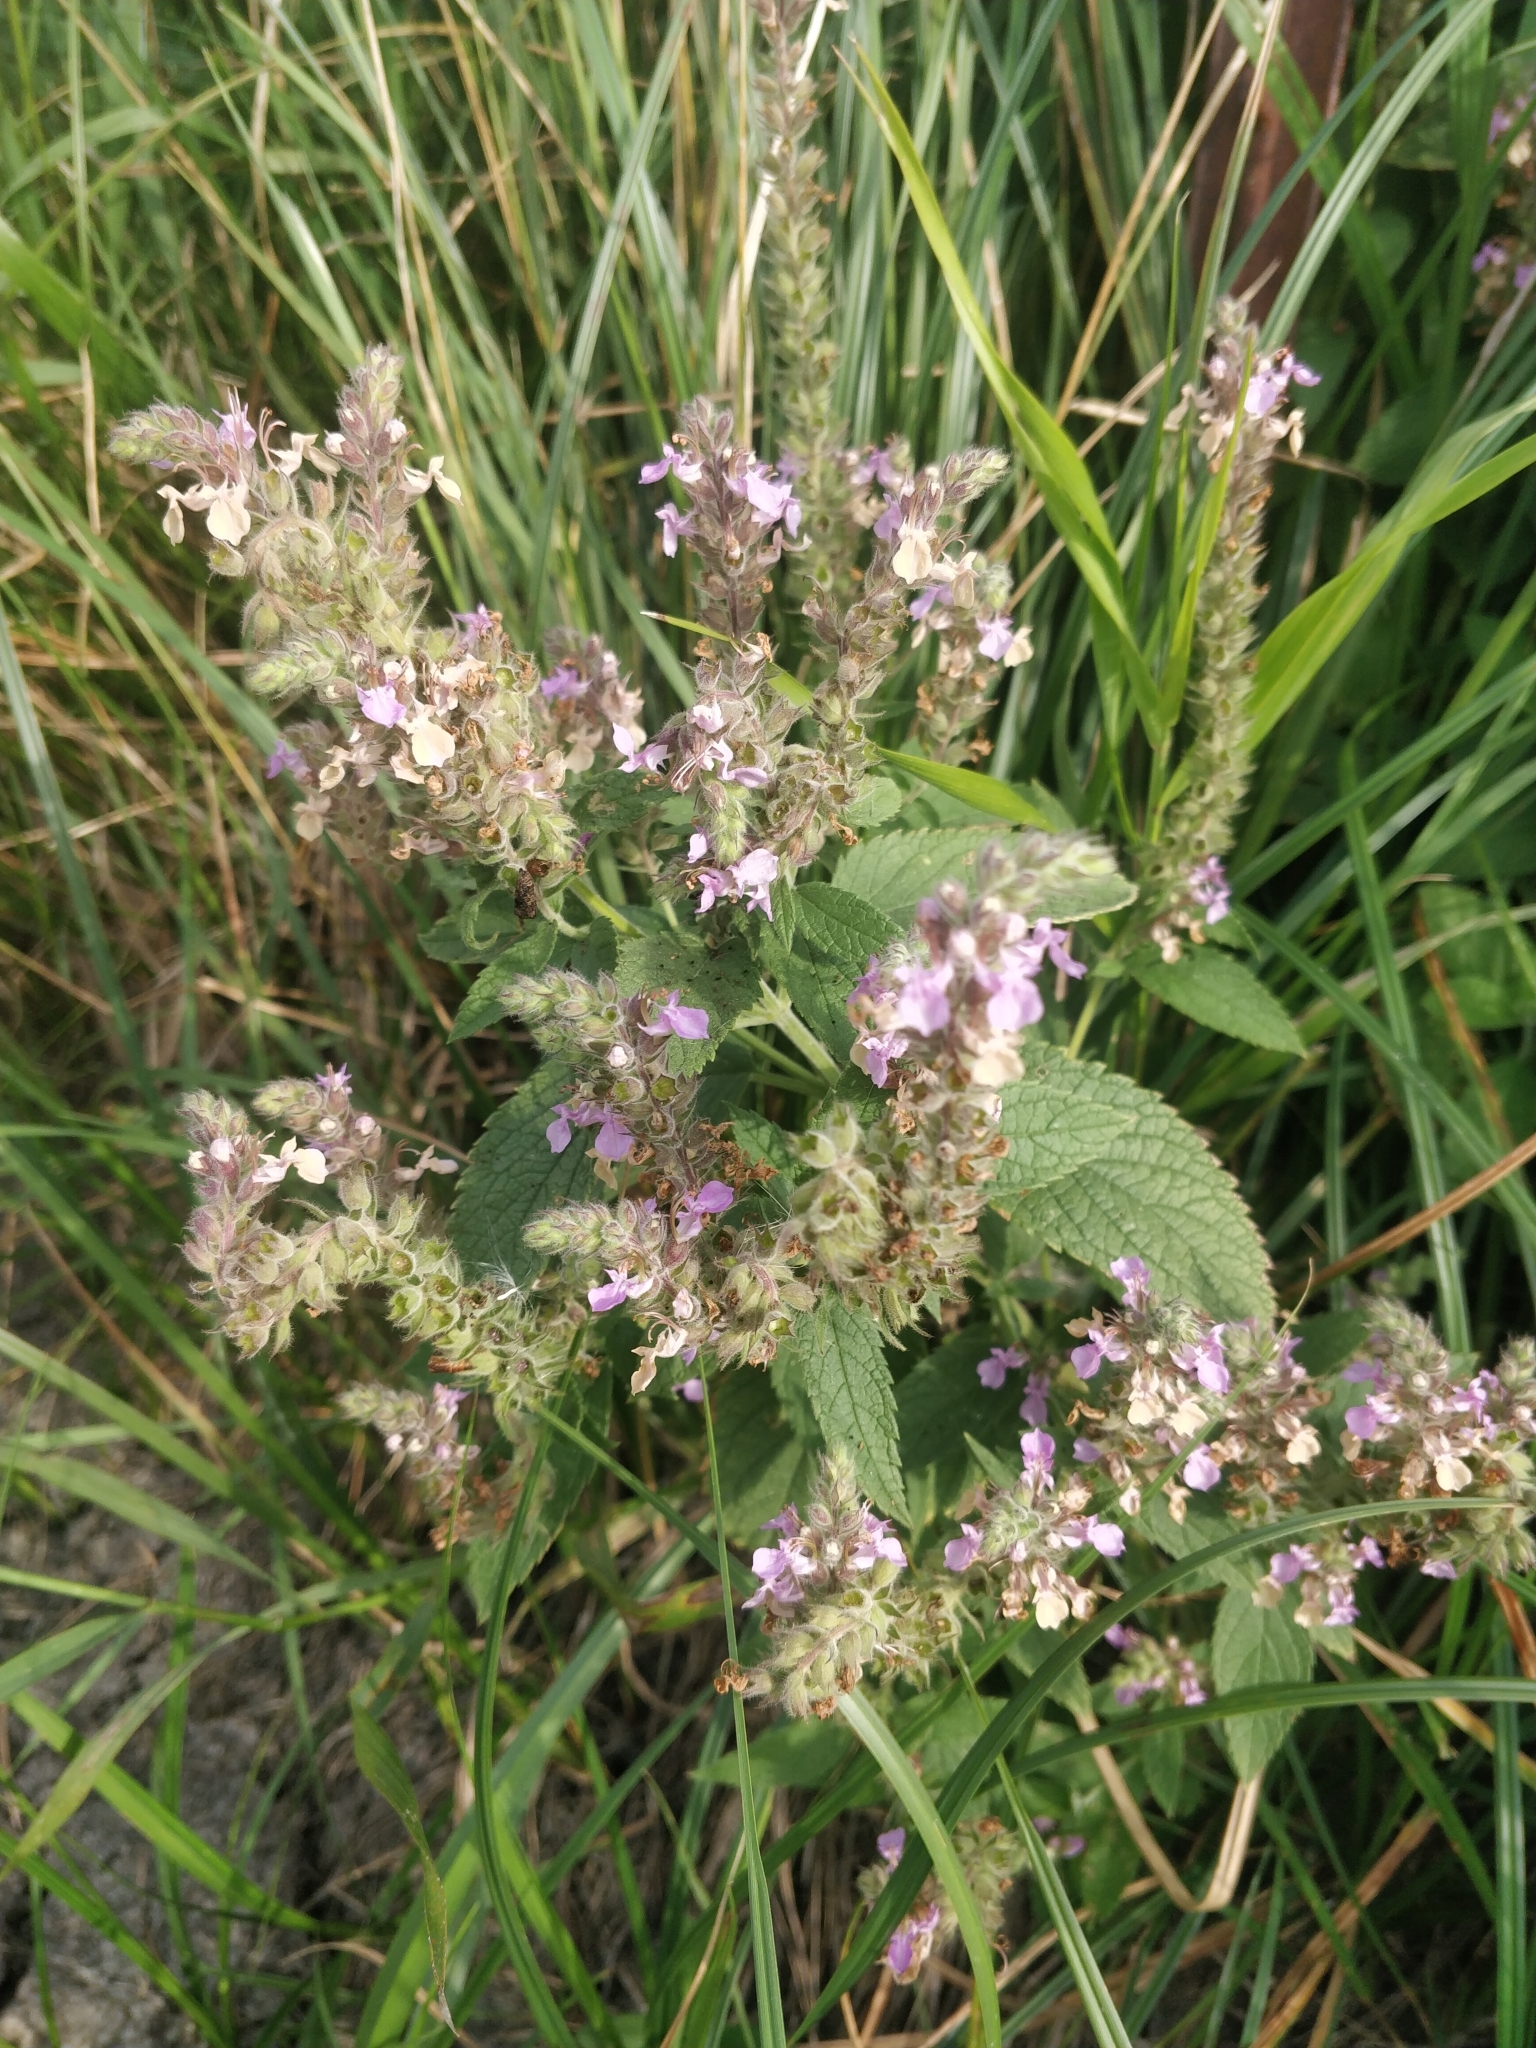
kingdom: Plantae
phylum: Tracheophyta
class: Magnoliopsida
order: Lamiales
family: Lamiaceae
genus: Teucrium
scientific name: Teucrium canadense
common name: American germander
